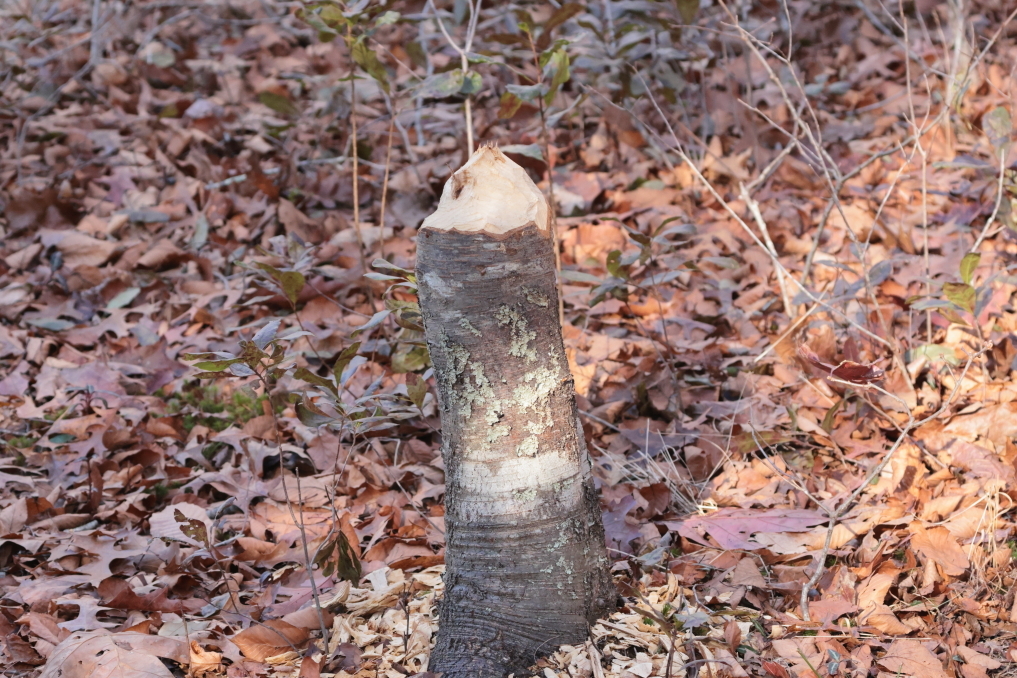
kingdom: Animalia
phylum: Chordata
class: Mammalia
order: Rodentia
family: Castoridae
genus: Castor
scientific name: Castor canadensis
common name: American beaver
